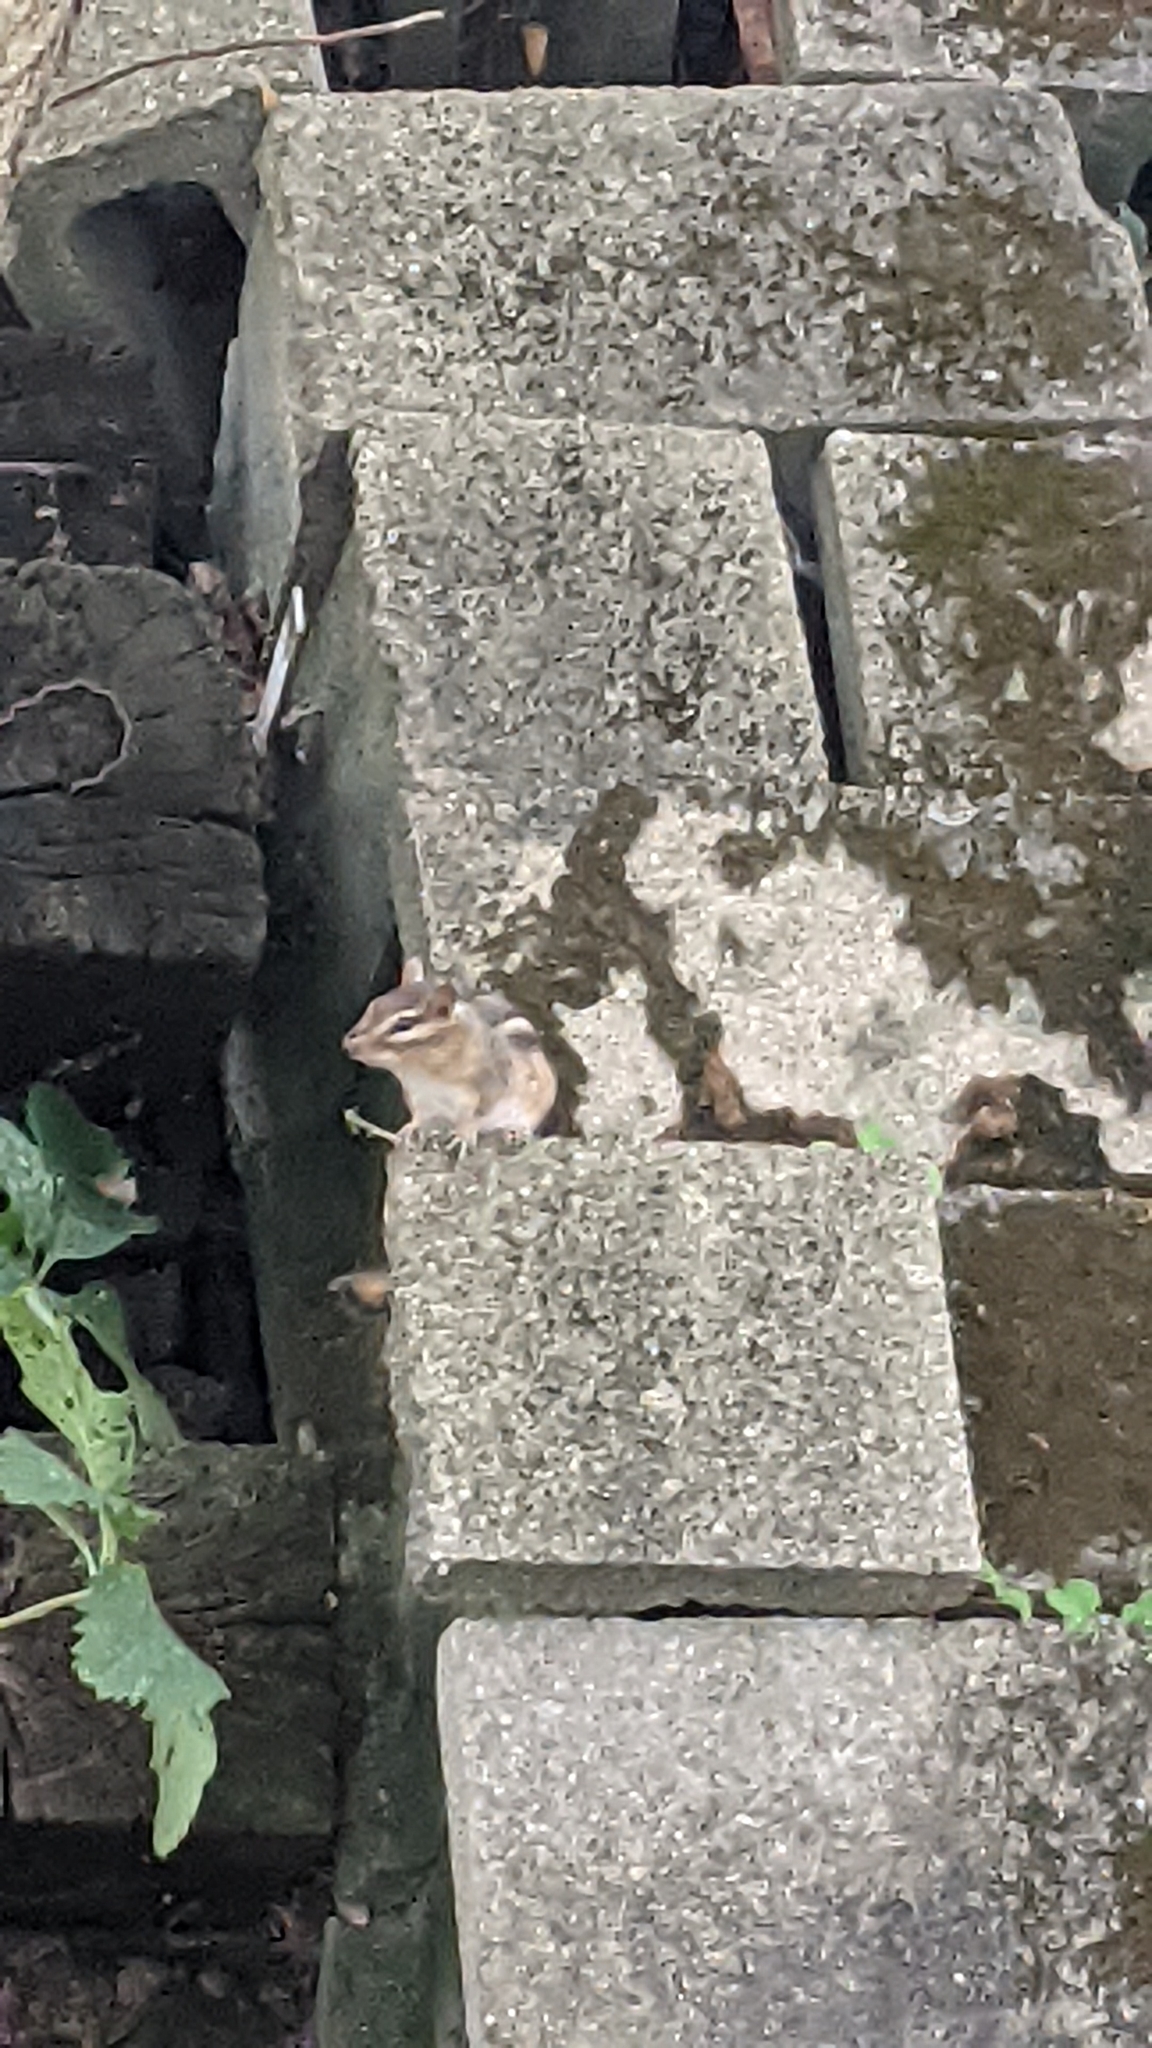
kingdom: Animalia
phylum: Chordata
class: Mammalia
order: Rodentia
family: Sciuridae
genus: Tamias
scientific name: Tamias striatus
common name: Eastern chipmunk
